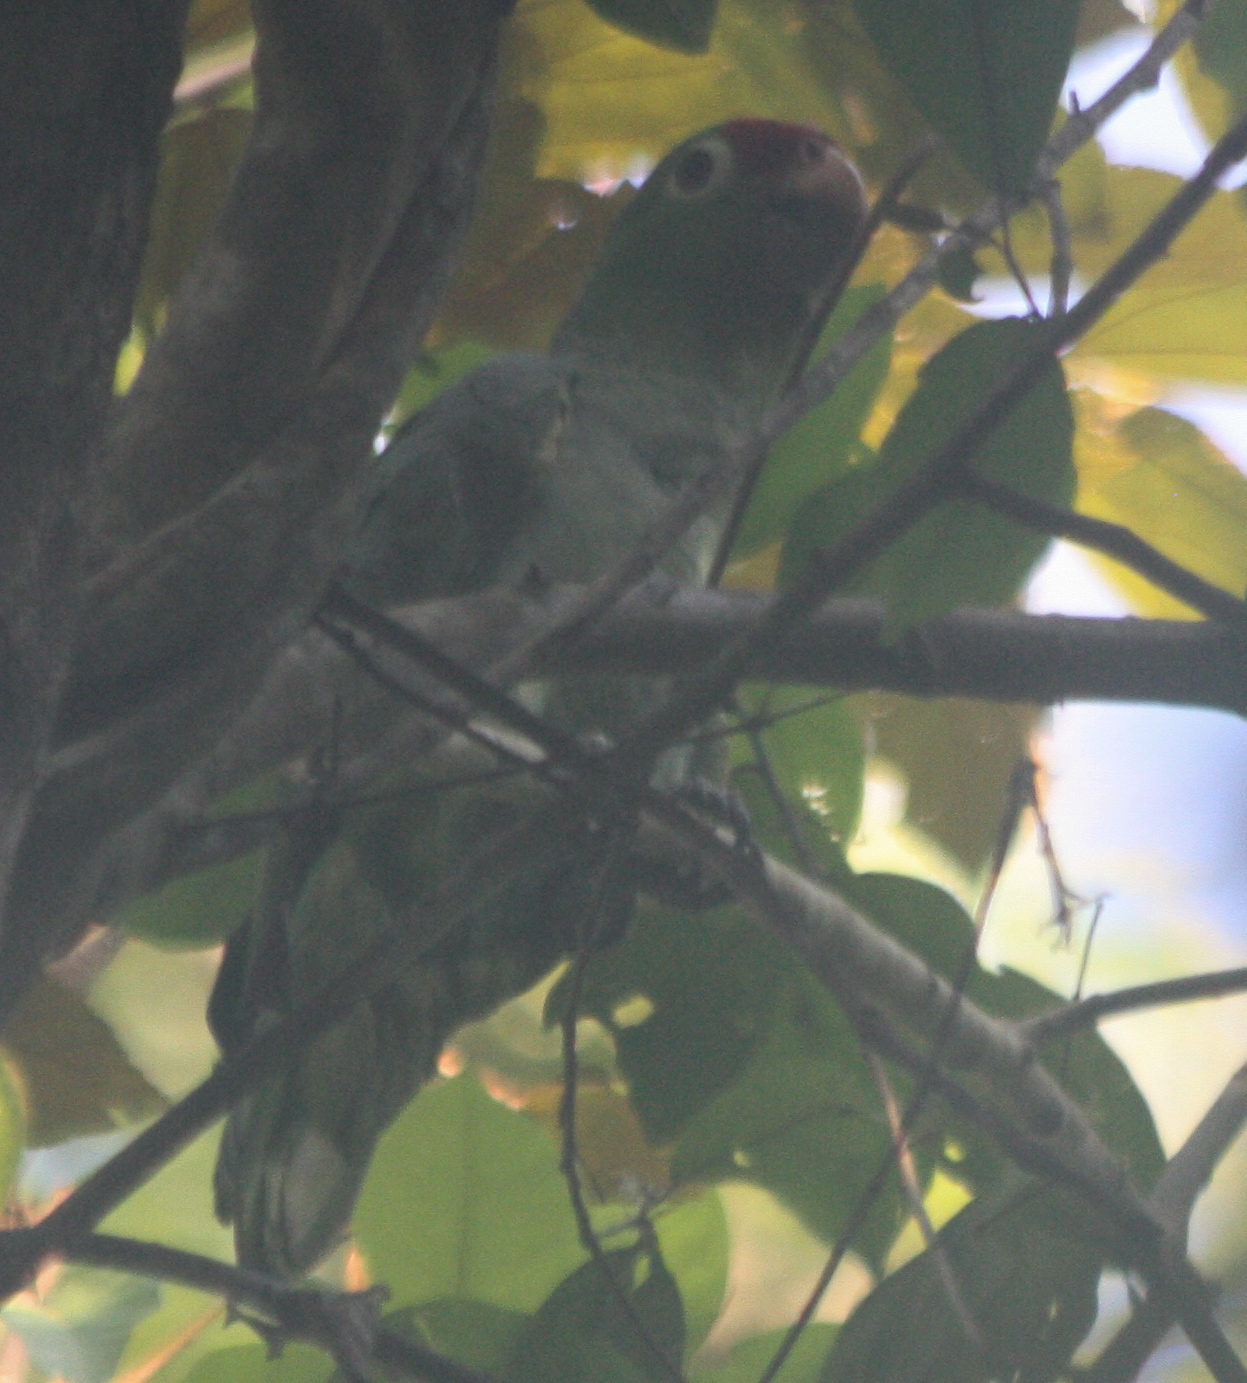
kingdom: Animalia
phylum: Chordata
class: Aves
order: Psittaciformes
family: Psittacidae
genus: Amazona
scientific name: Amazona autumnalis
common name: Red-lored amazon
